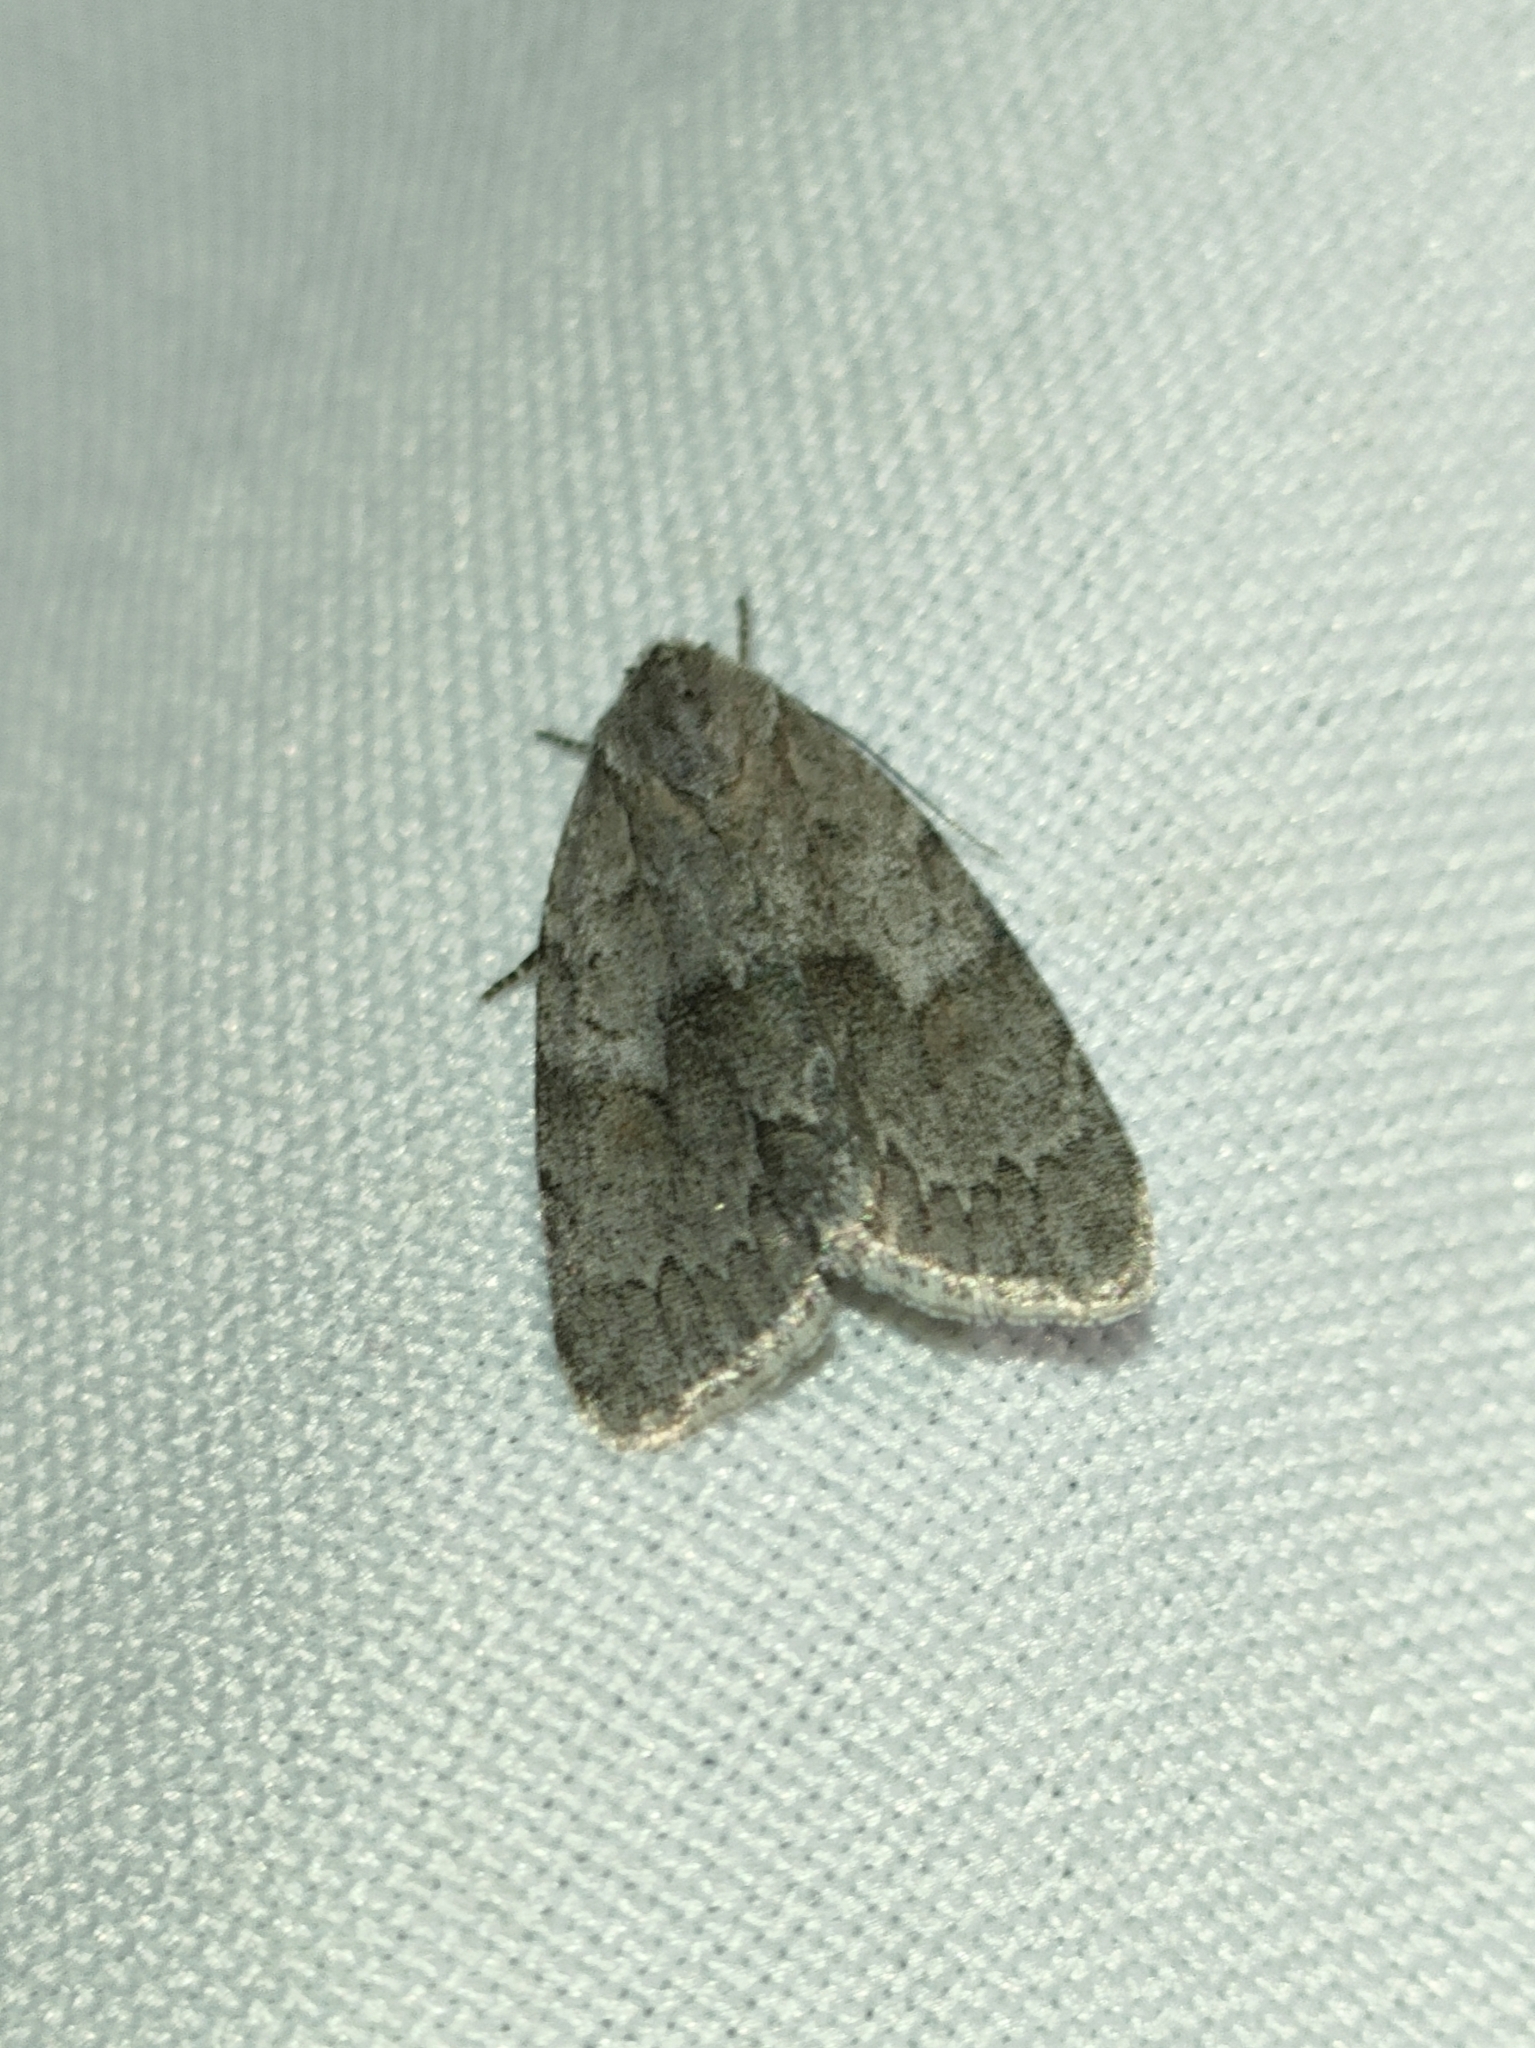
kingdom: Animalia
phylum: Arthropoda
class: Insecta
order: Lepidoptera
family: Noctuidae
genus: Bryonycta
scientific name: Bryonycta pineti
